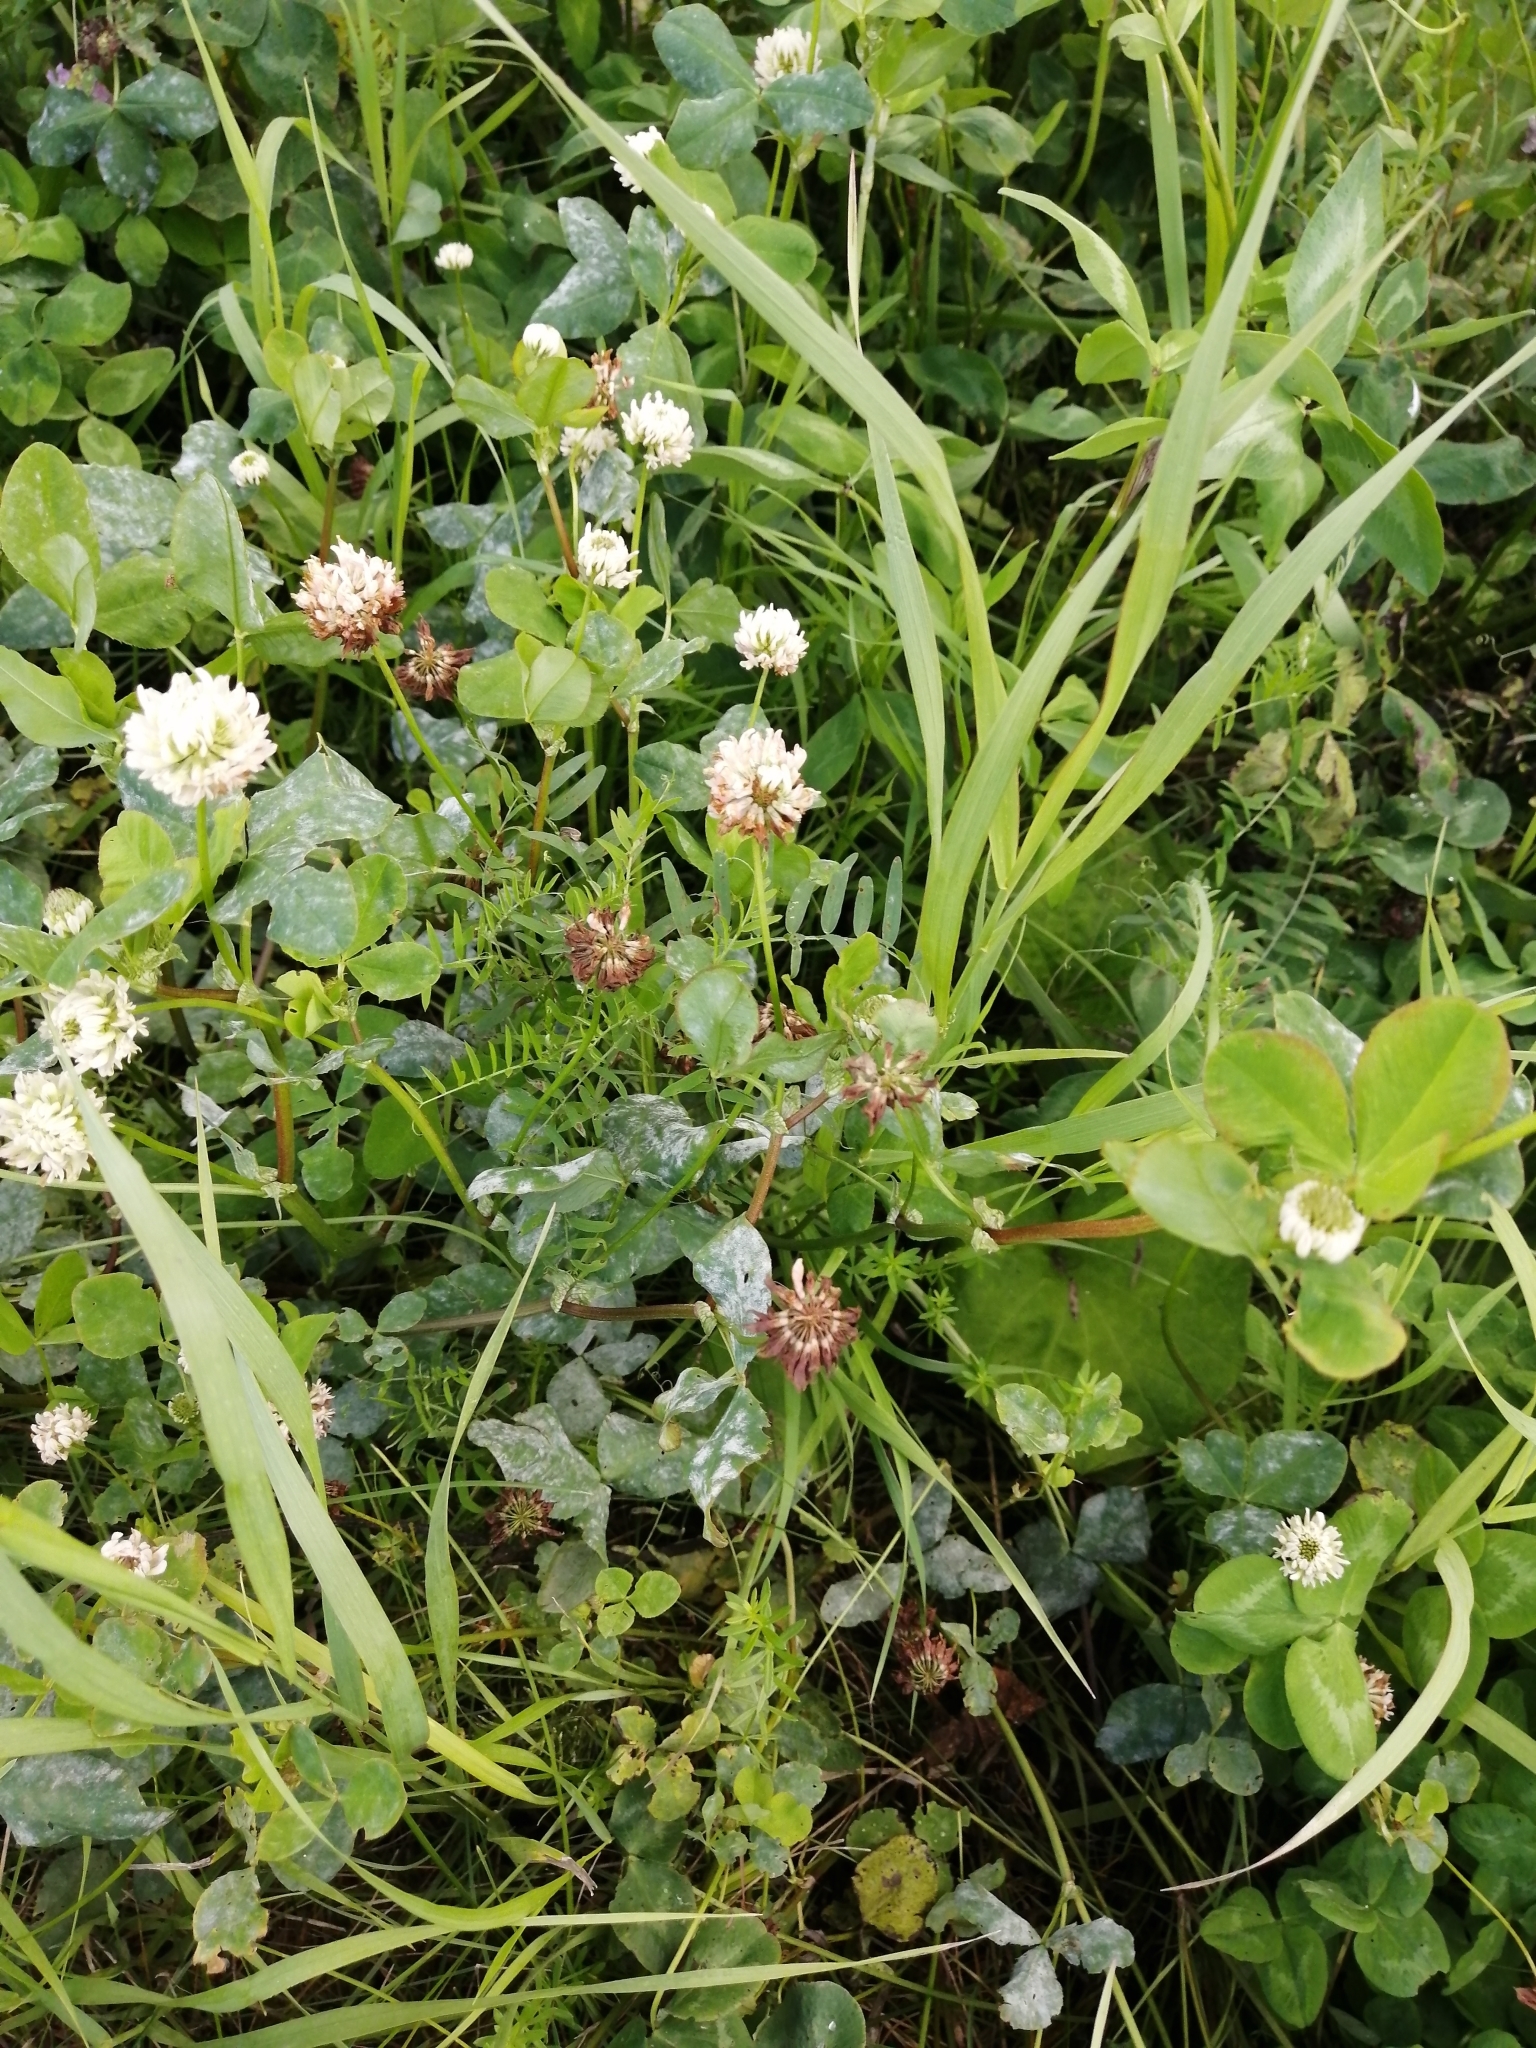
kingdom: Plantae
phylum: Tracheophyta
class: Magnoliopsida
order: Fabales
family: Fabaceae
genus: Trifolium
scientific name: Trifolium hybridum
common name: Alsike clover
